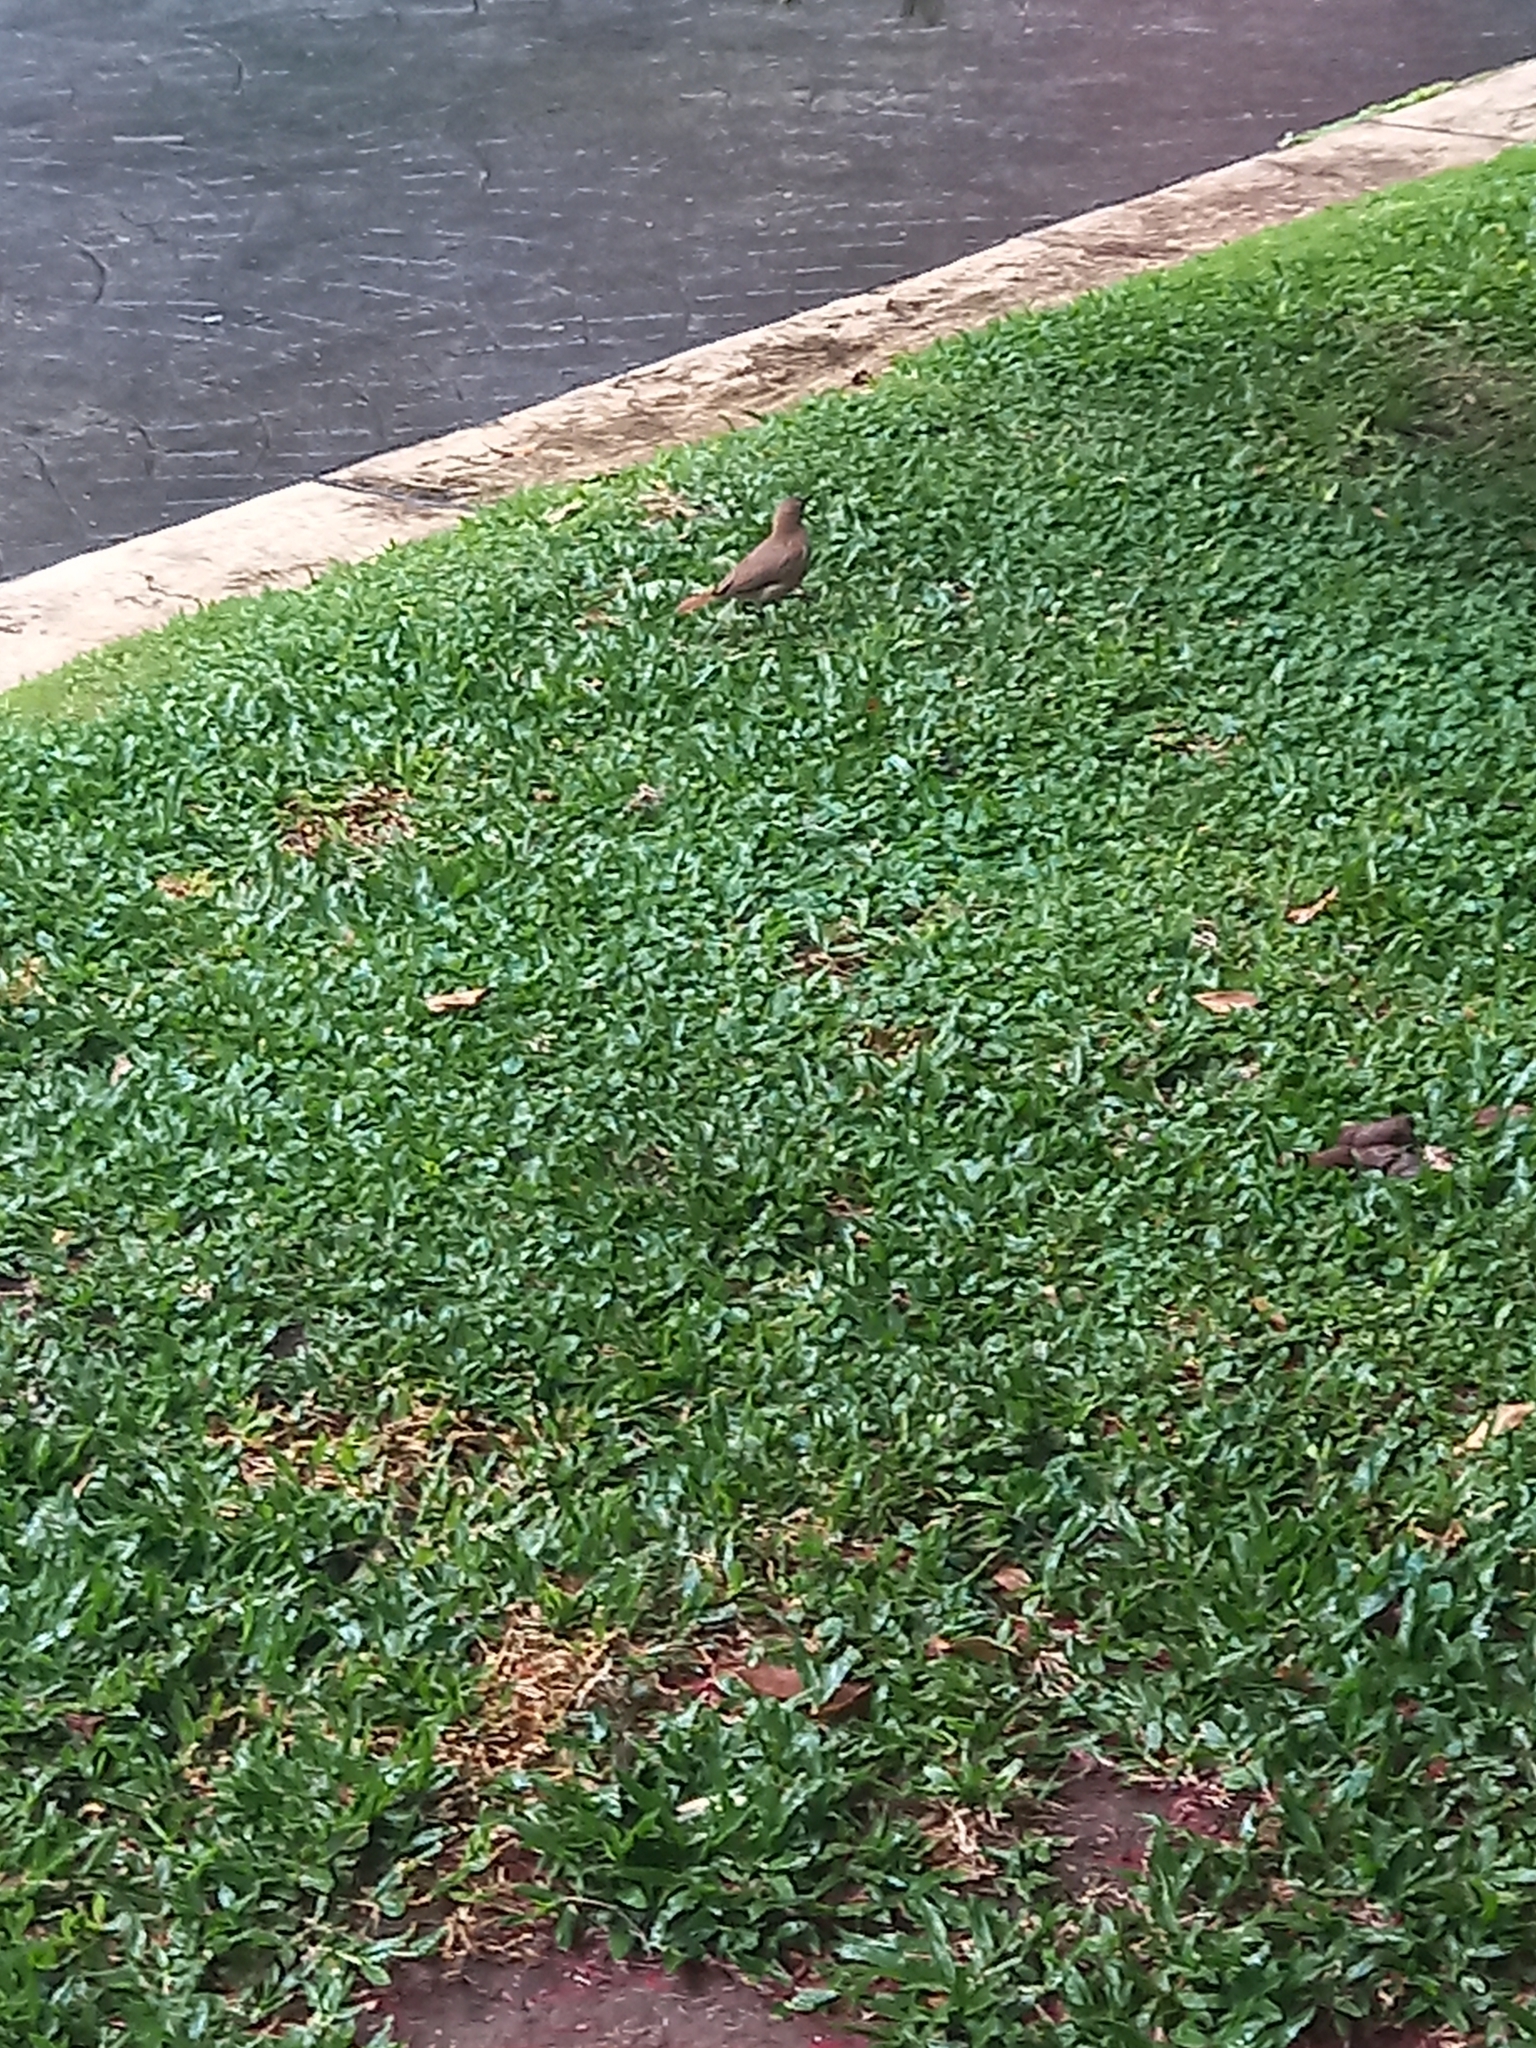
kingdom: Animalia
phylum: Chordata
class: Aves
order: Passeriformes
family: Furnariidae
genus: Furnarius
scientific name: Furnarius rufus
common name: Rufous hornero
